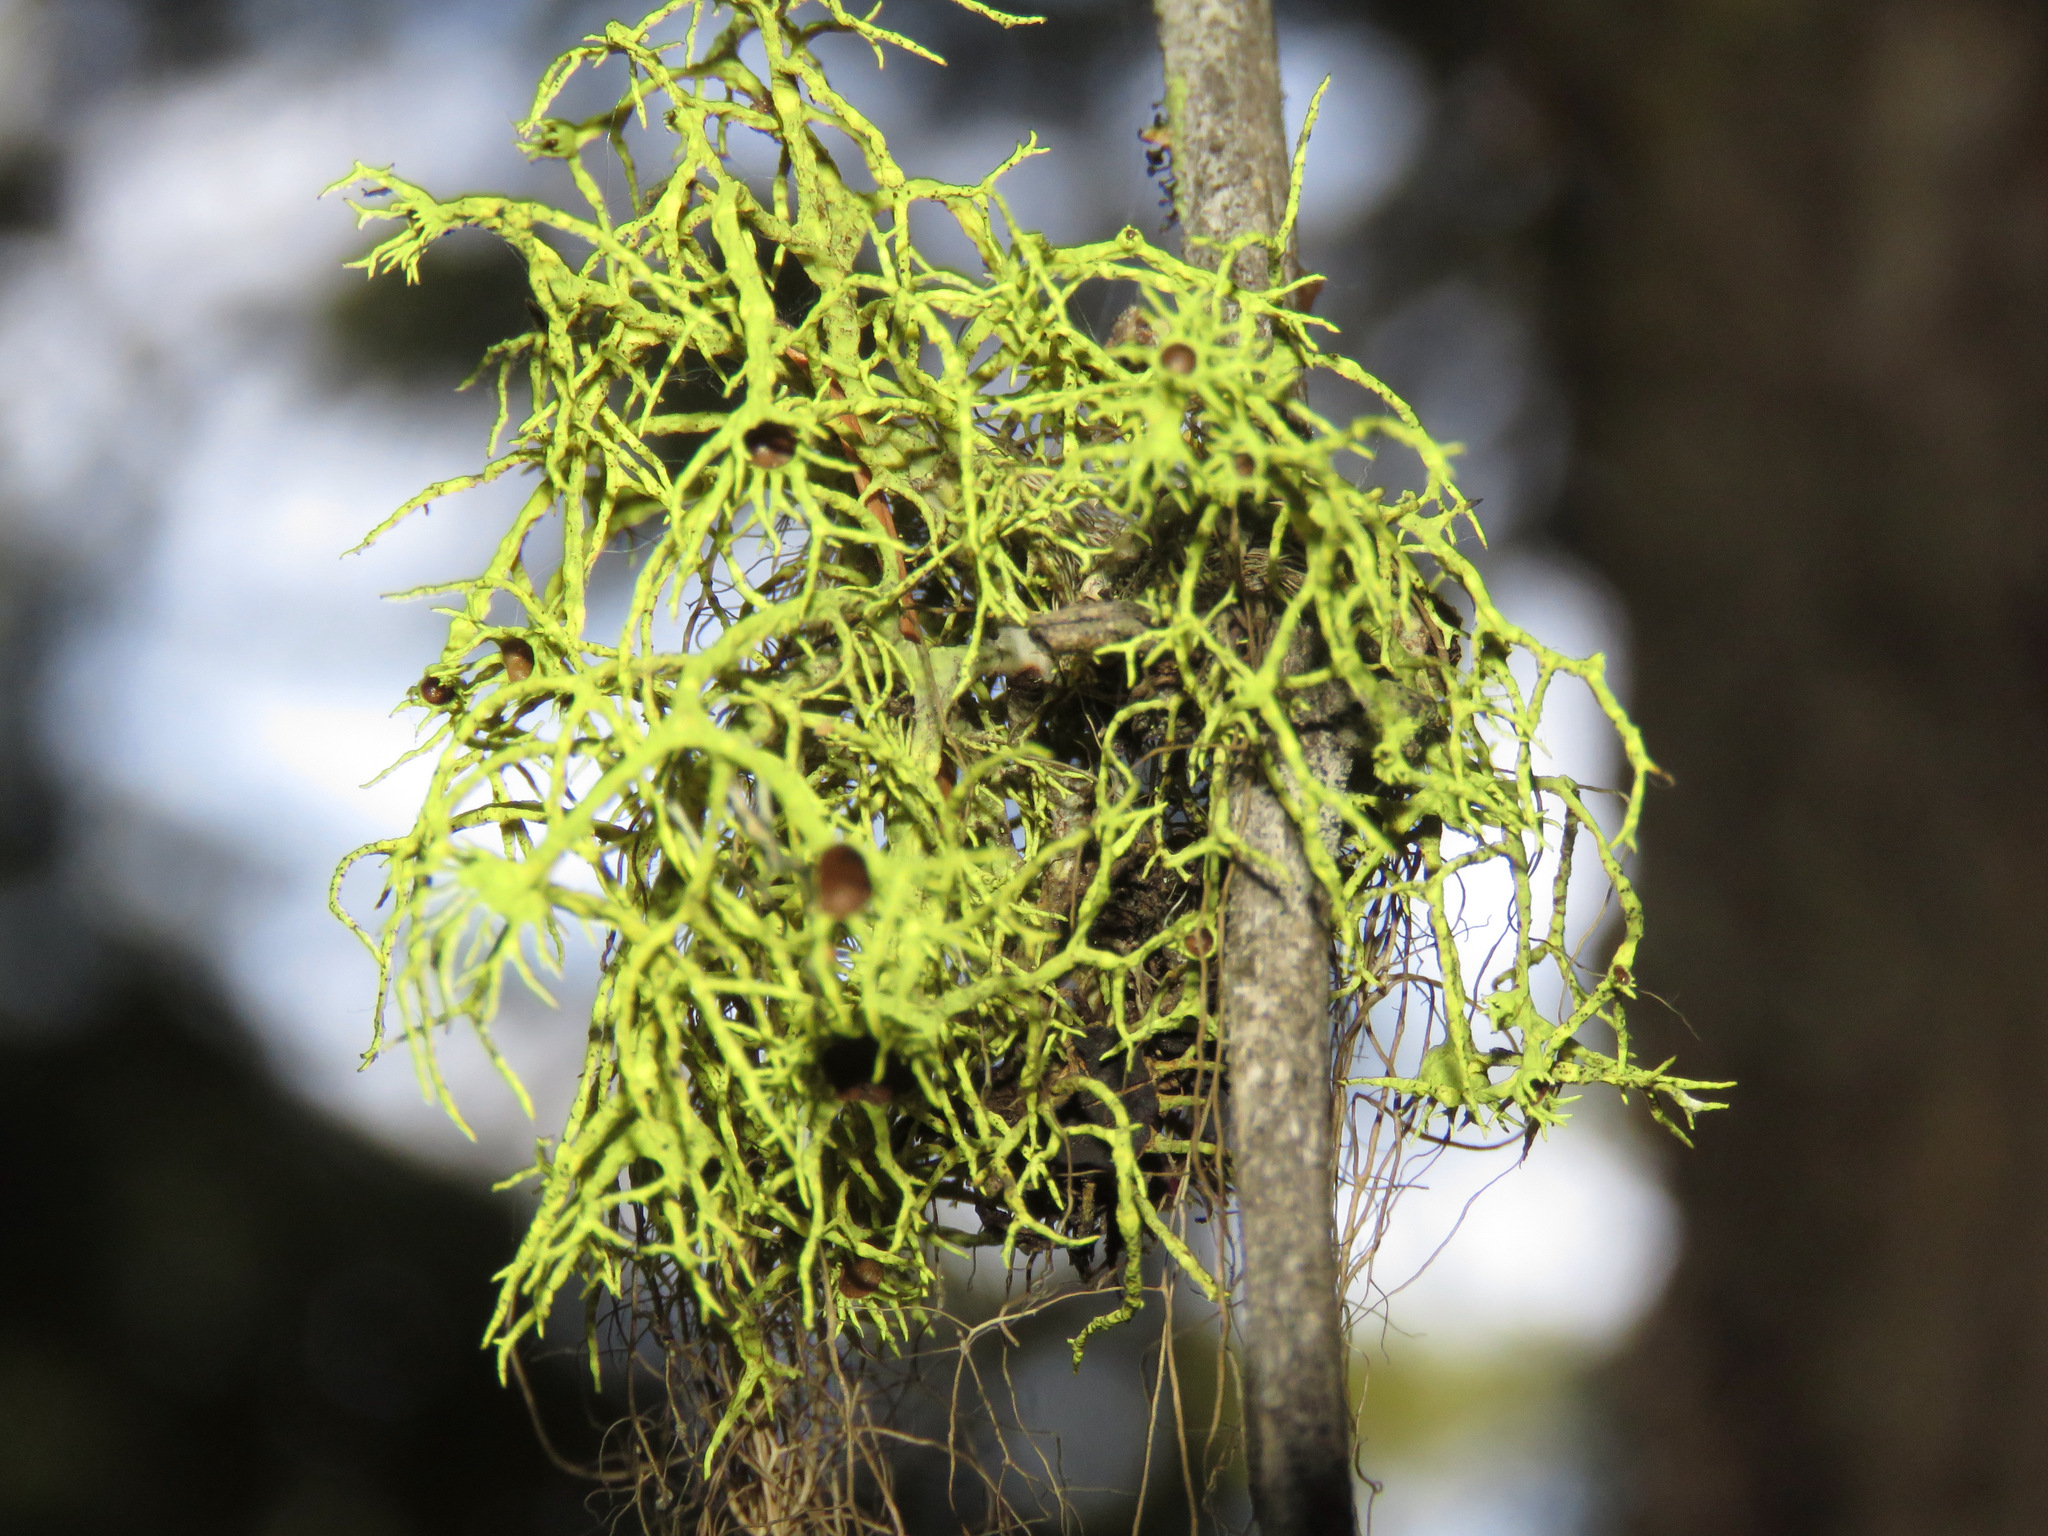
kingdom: Fungi
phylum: Ascomycota
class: Lecanoromycetes
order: Lecanorales
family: Parmeliaceae
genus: Letharia
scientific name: Letharia columbiana
